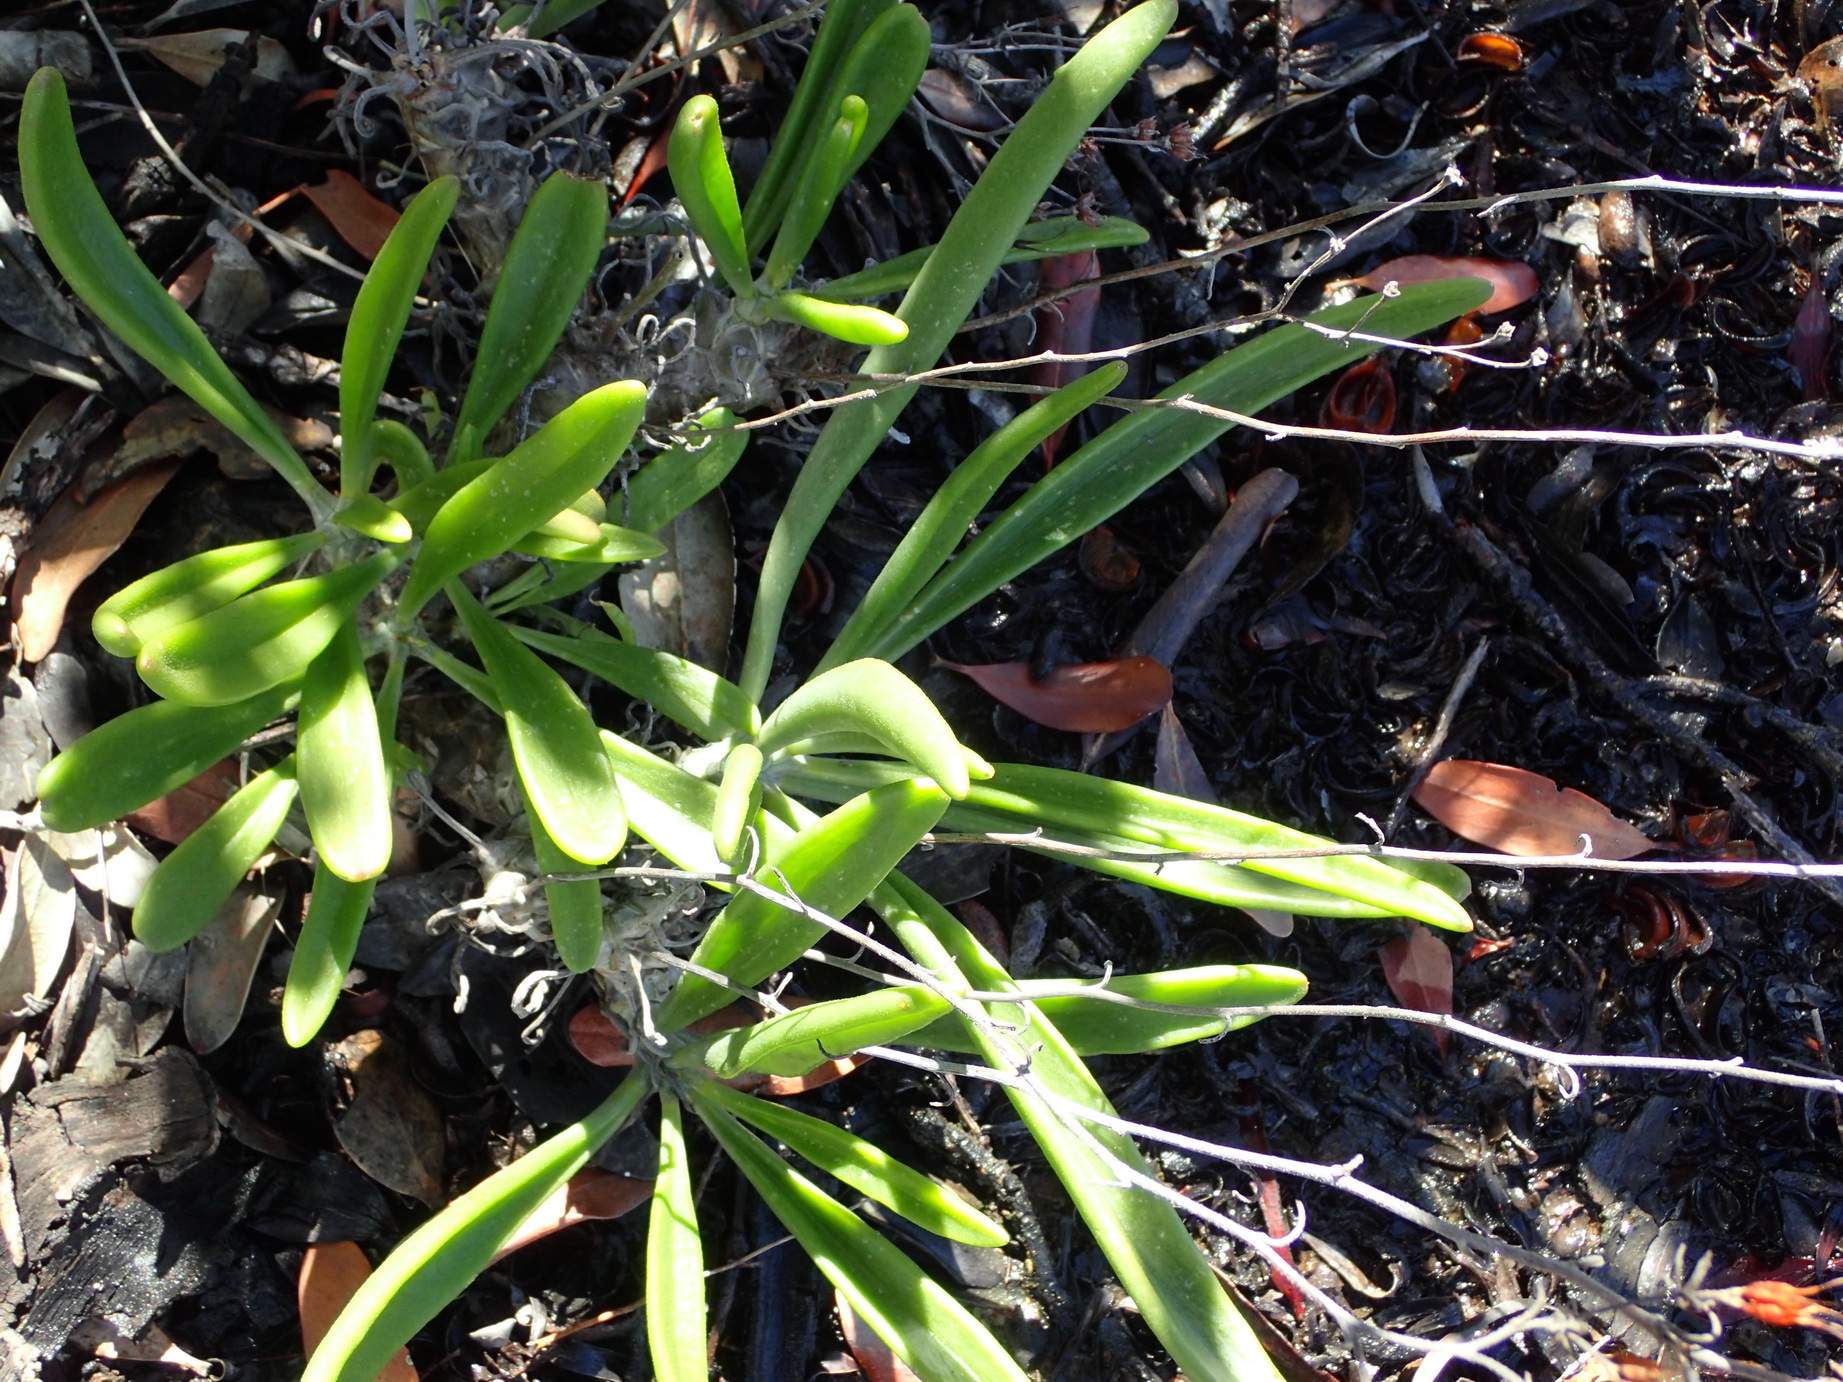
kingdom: Plantae
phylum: Tracheophyta
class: Magnoliopsida
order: Saxifragales
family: Crassulaceae
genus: Tylecodon
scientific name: Tylecodon ventricosus
